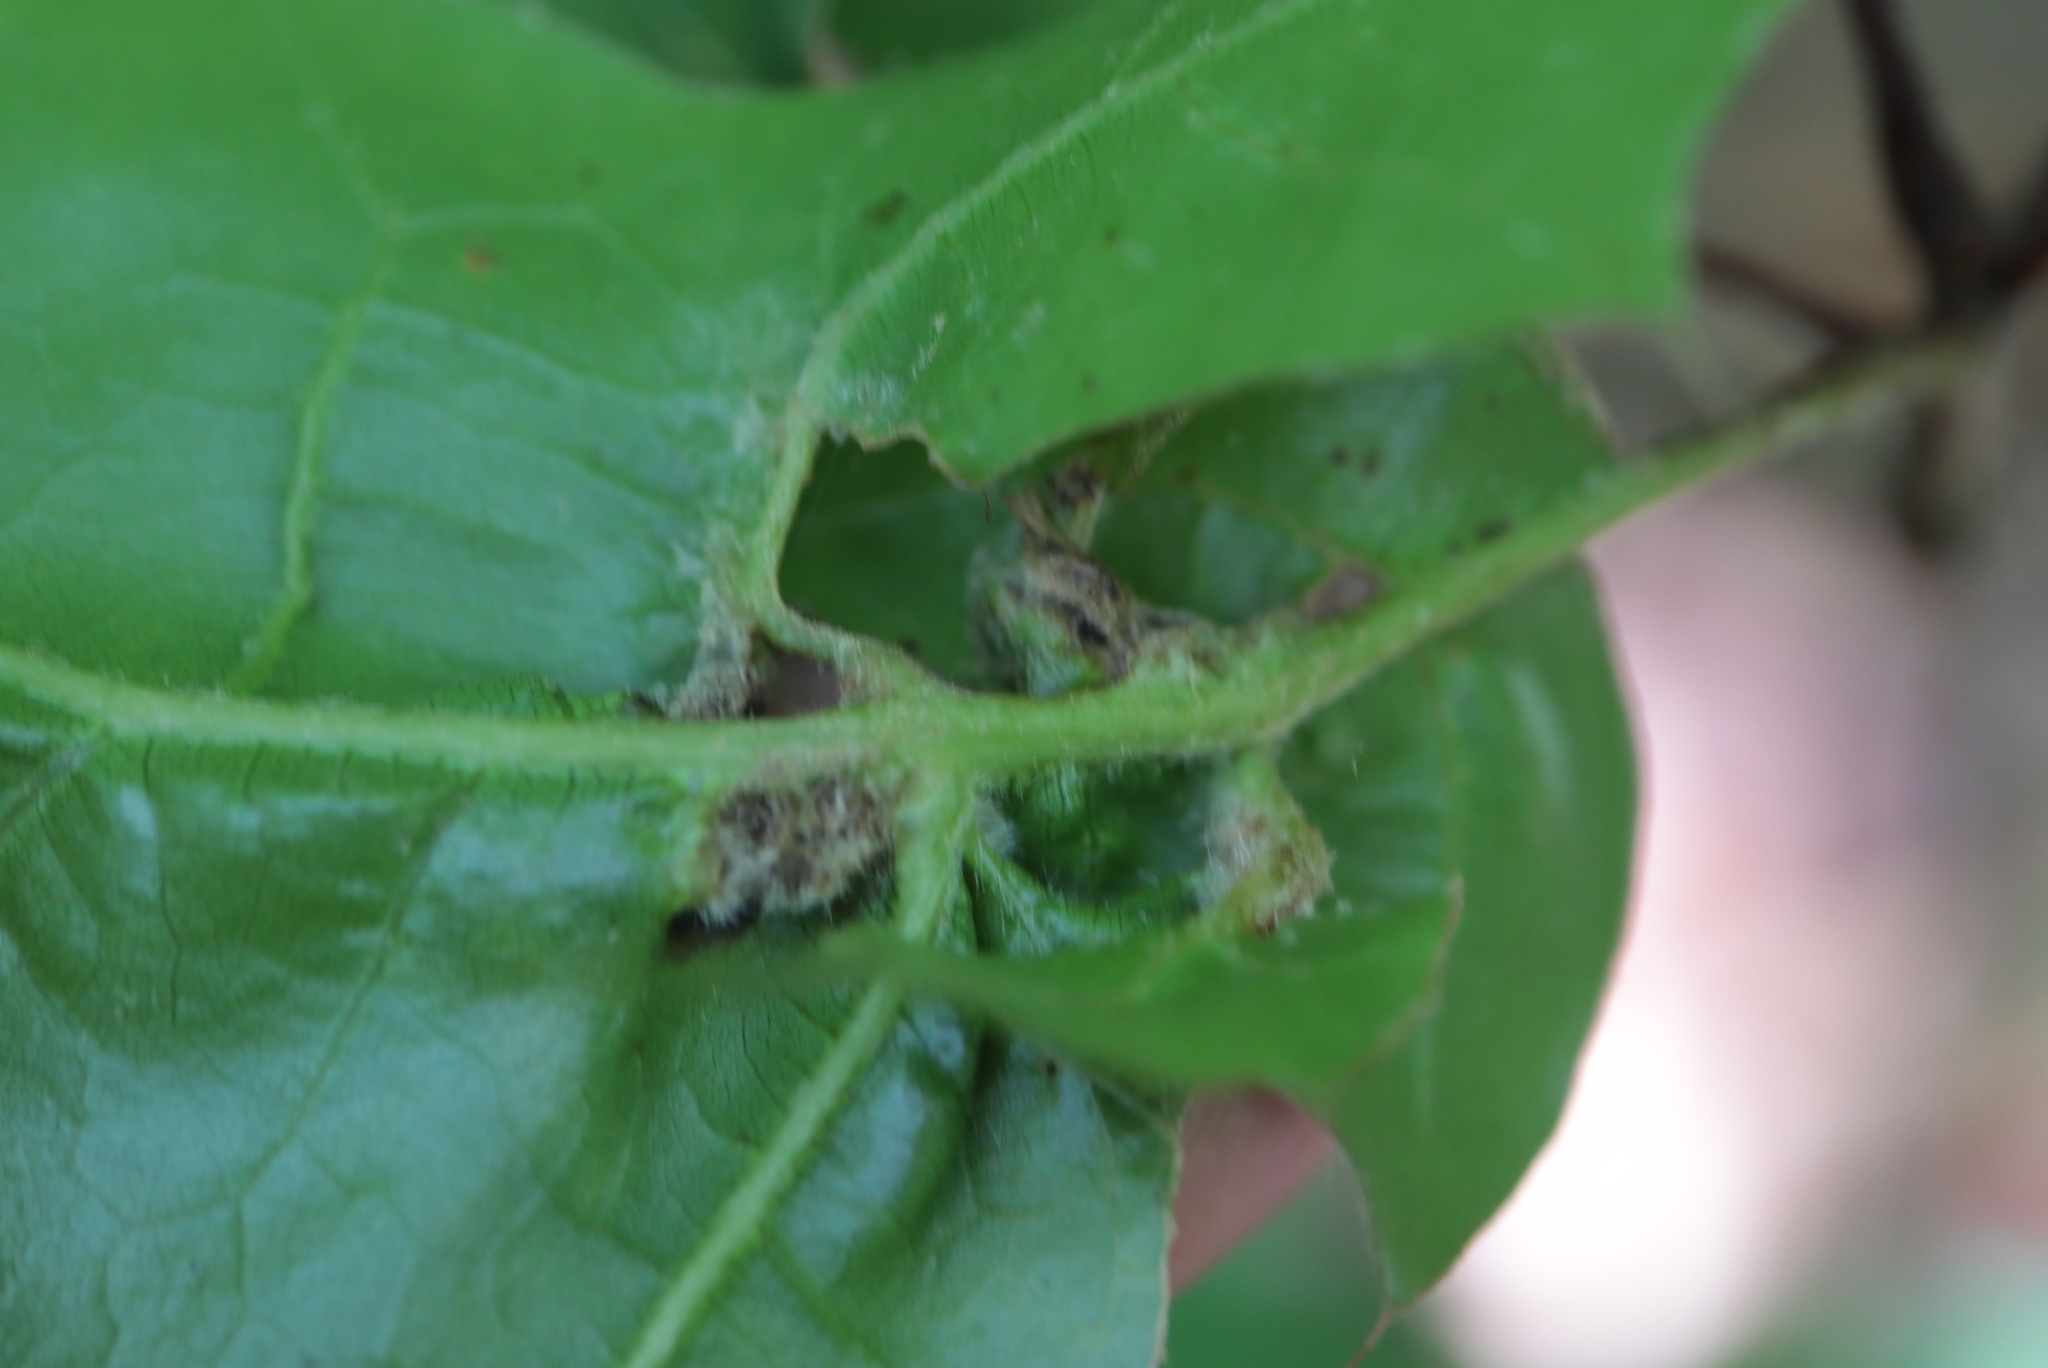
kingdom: Animalia
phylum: Arthropoda
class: Insecta
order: Diptera
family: Cecidomyiidae
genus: Macrodiplosis
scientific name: Macrodiplosis niveipila
